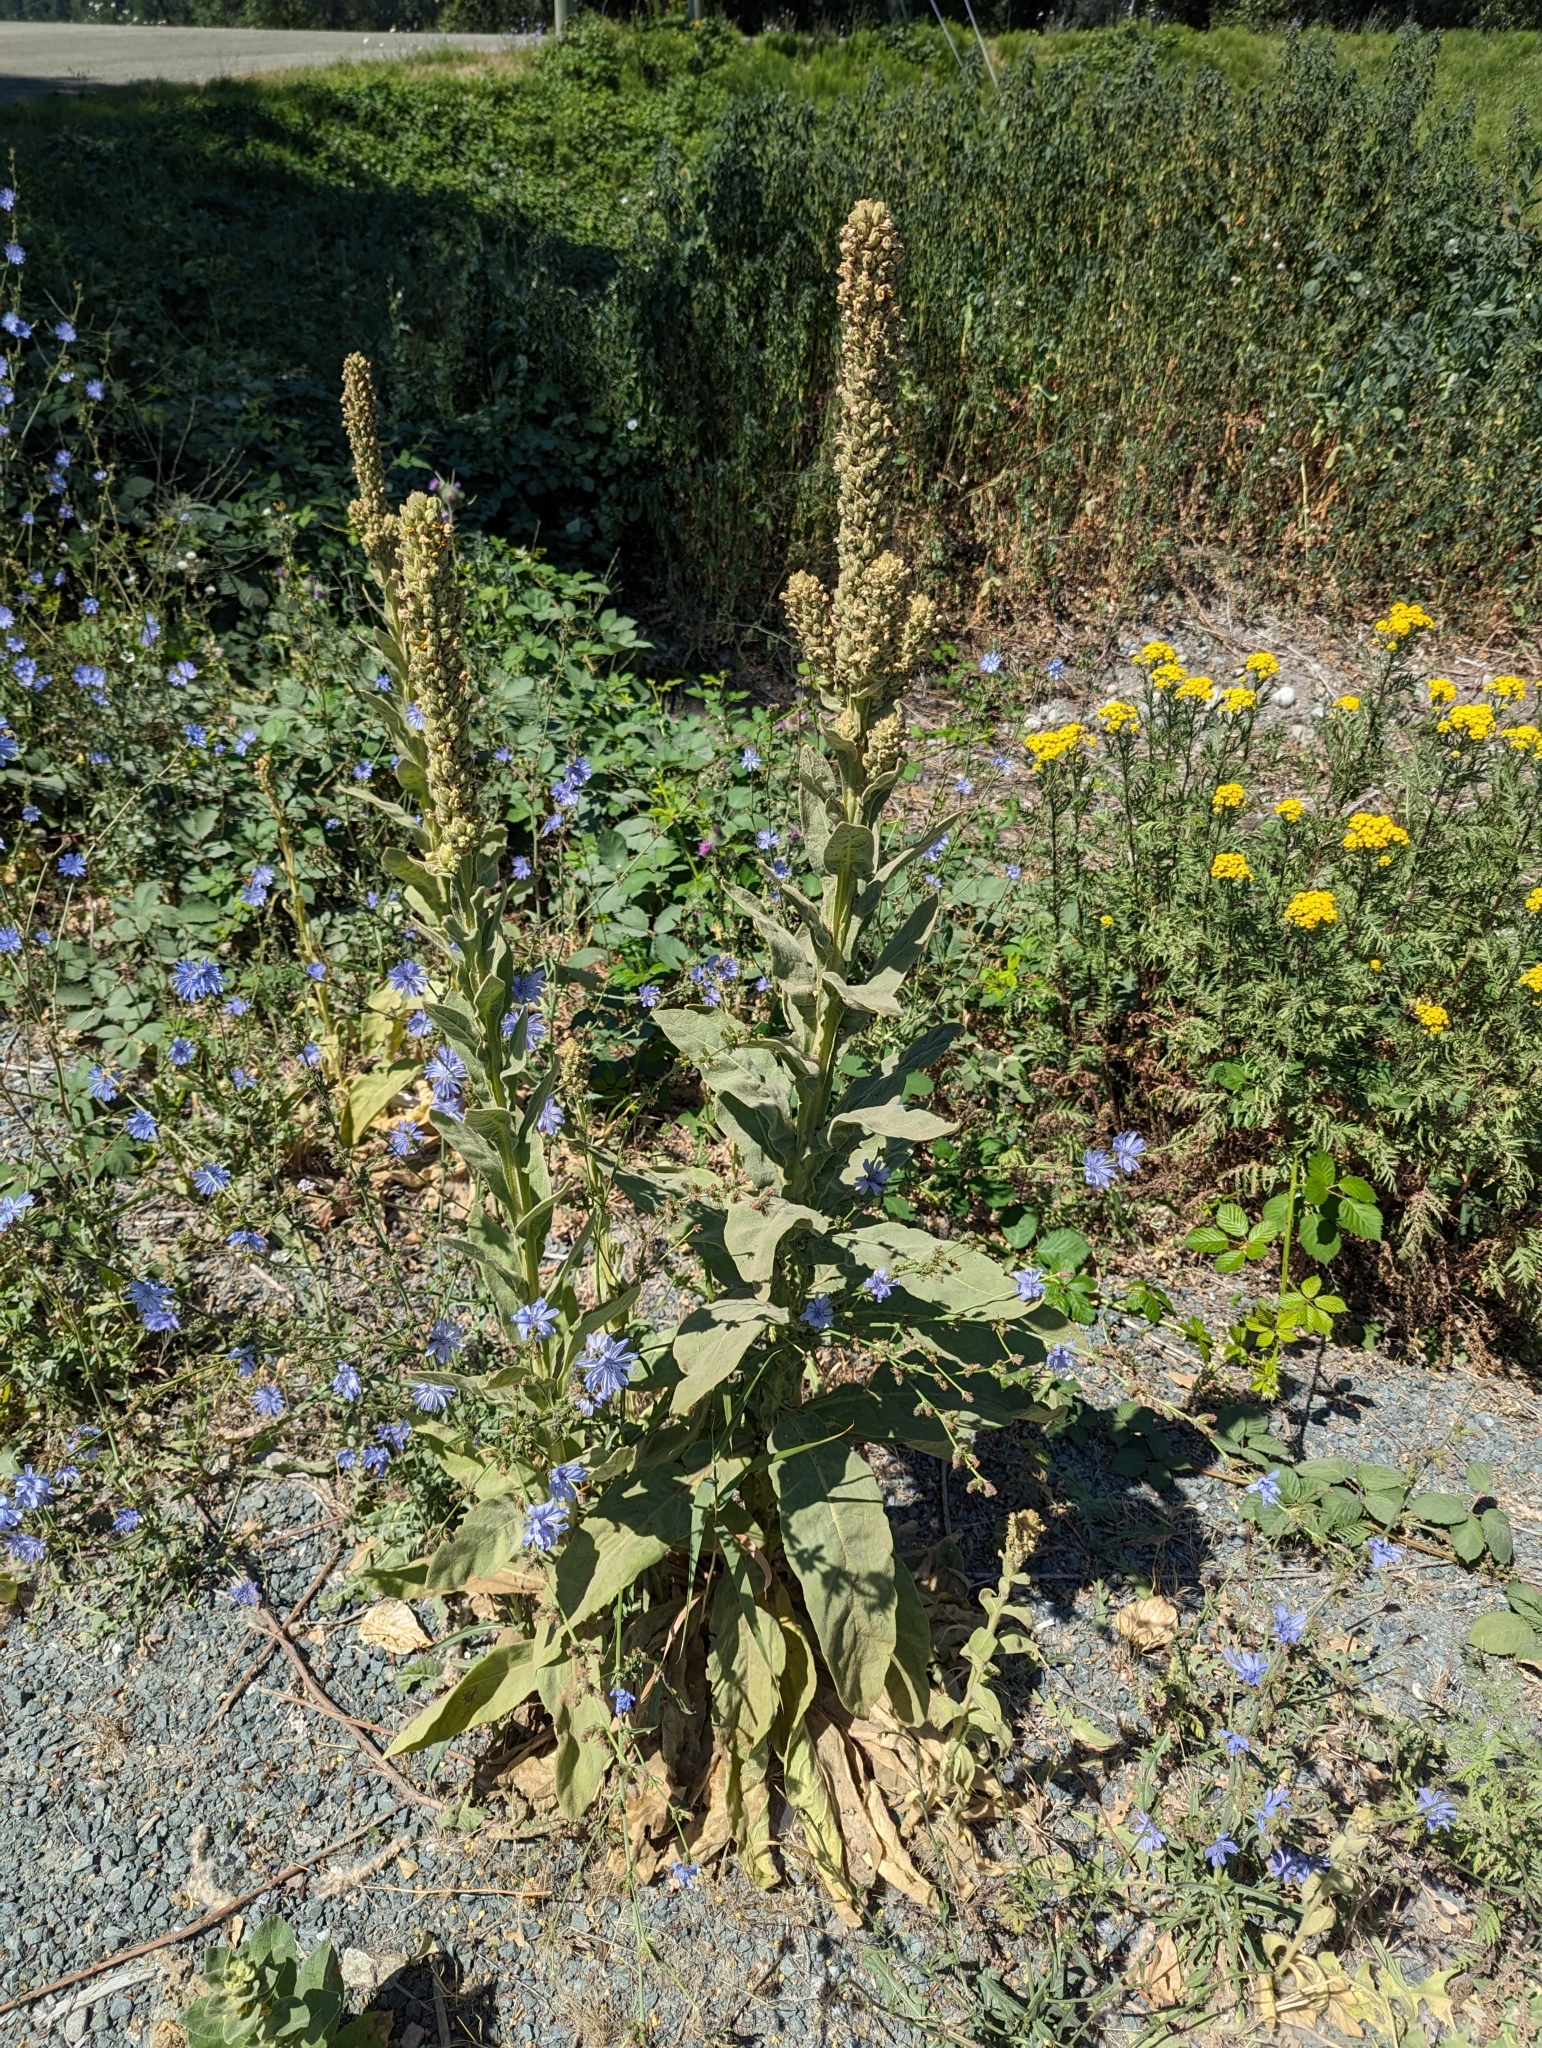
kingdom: Plantae
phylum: Tracheophyta
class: Magnoliopsida
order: Lamiales
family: Scrophulariaceae
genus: Verbascum
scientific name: Verbascum thapsus
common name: Common mullein
